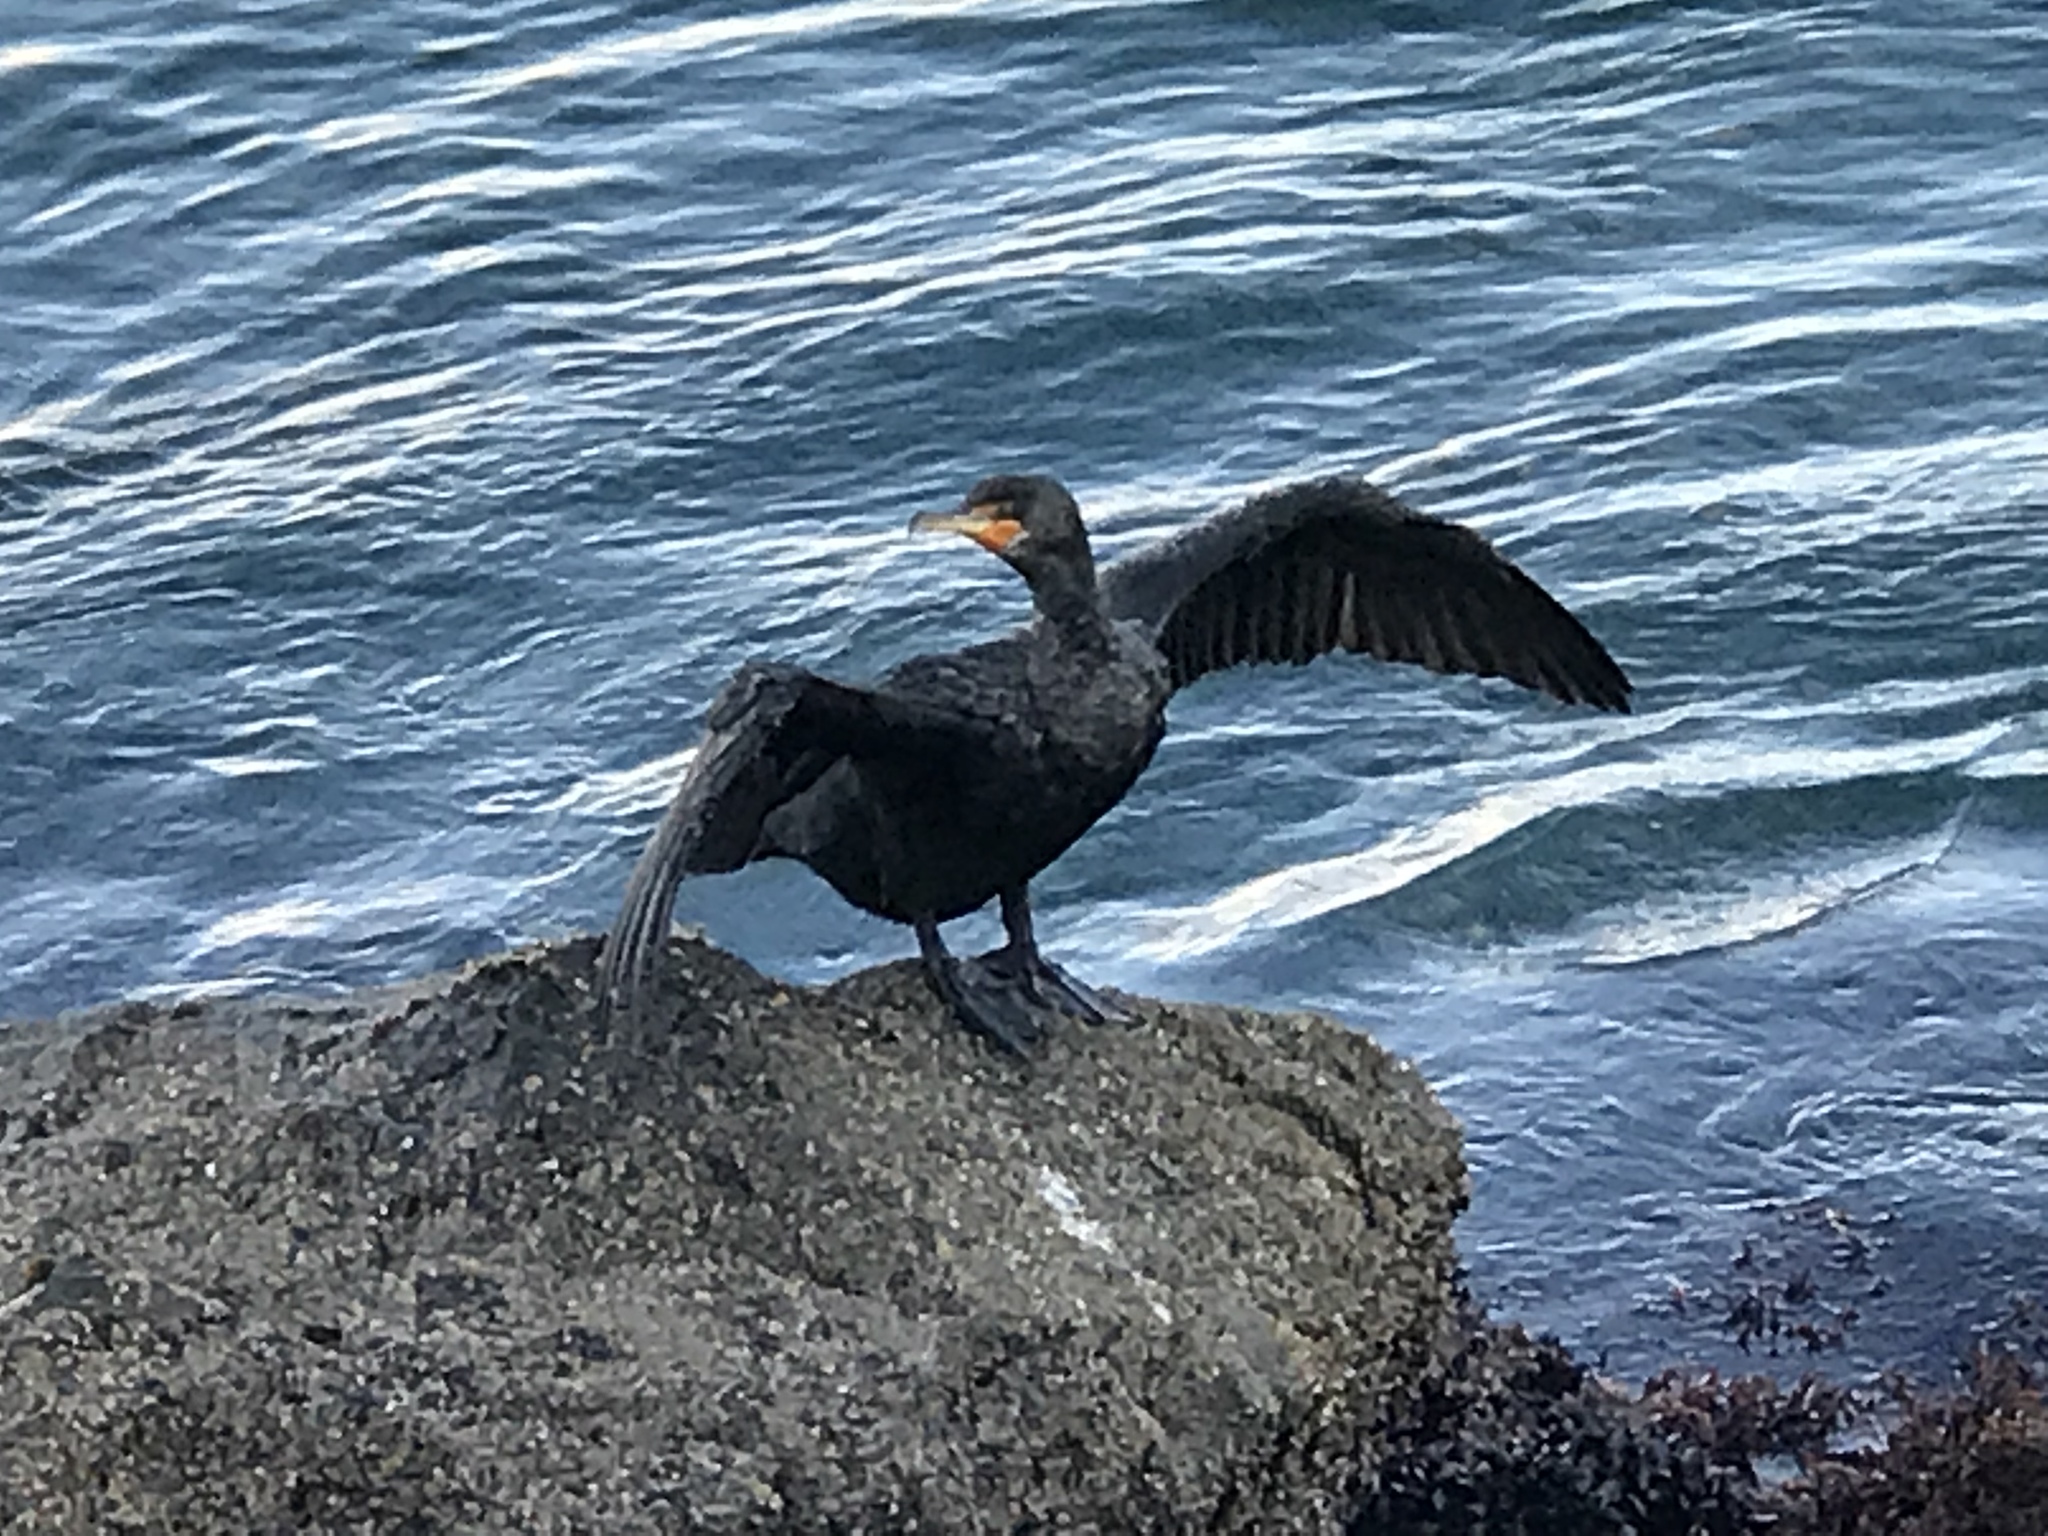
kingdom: Animalia
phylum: Chordata
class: Aves
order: Suliformes
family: Phalacrocoracidae
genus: Phalacrocorax
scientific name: Phalacrocorax auritus
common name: Double-crested cormorant
